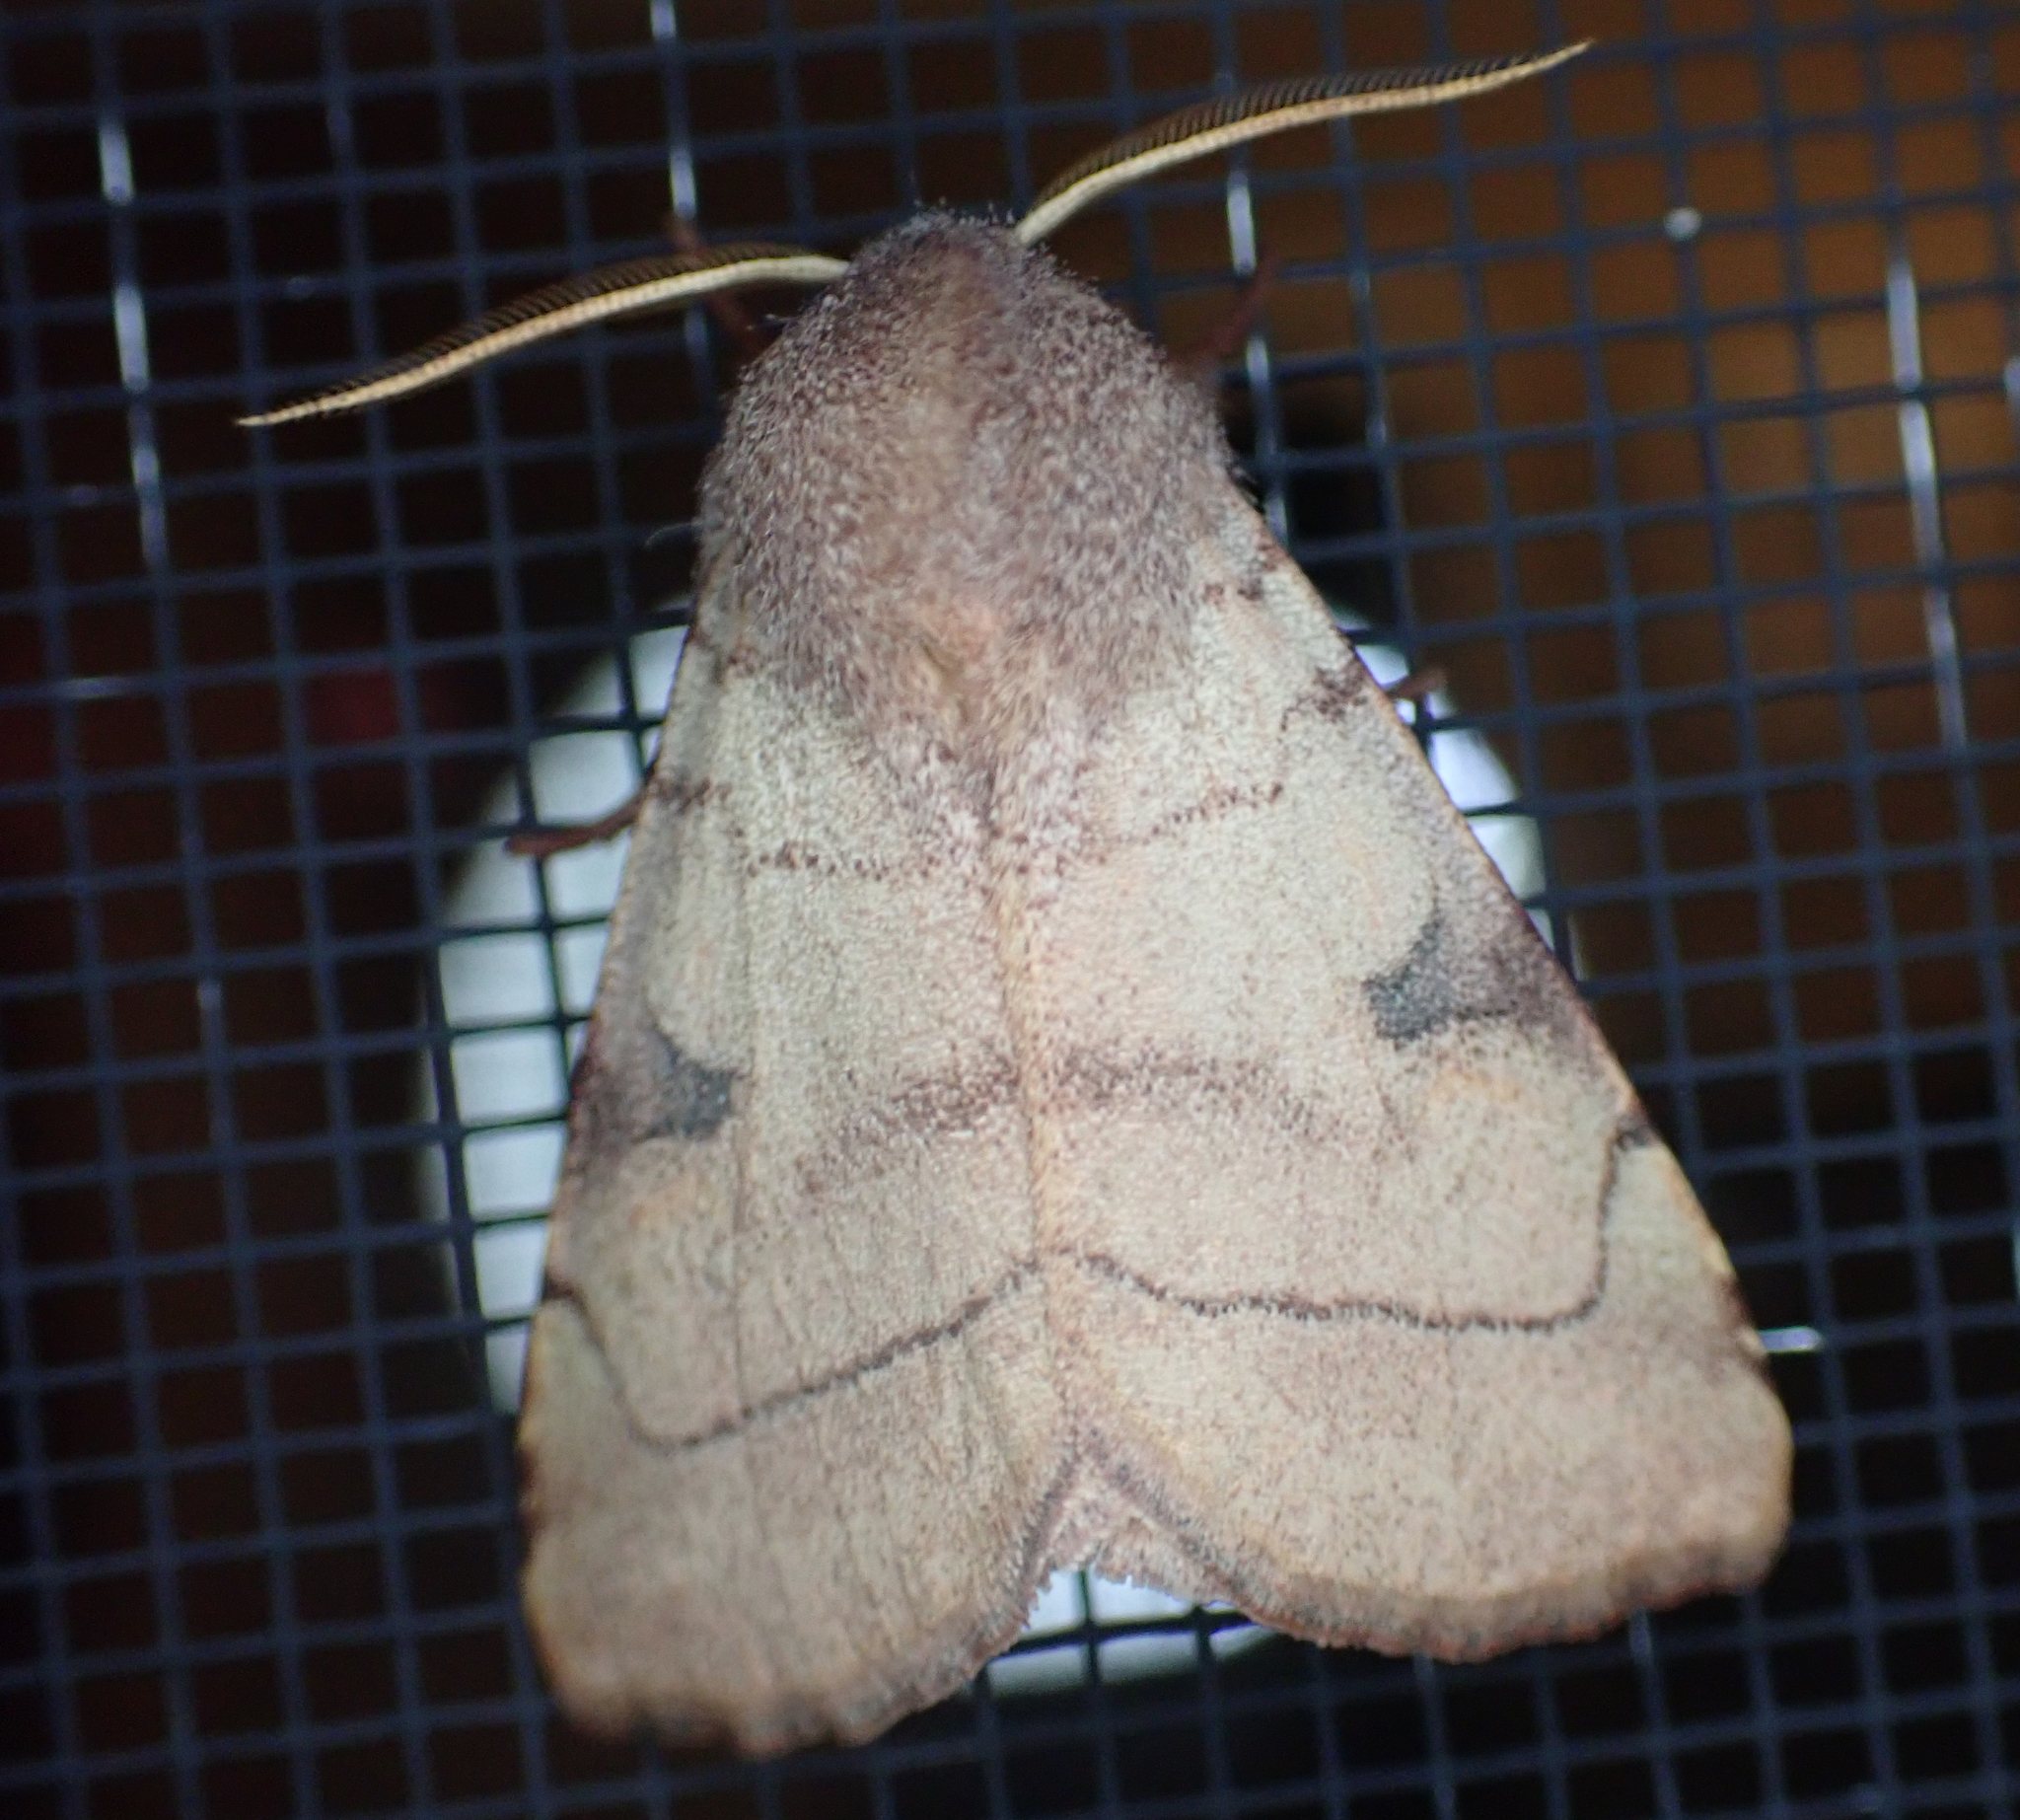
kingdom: Animalia
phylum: Arthropoda
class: Insecta
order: Lepidoptera
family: Noctuidae
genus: Choephora
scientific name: Choephora fungorum
